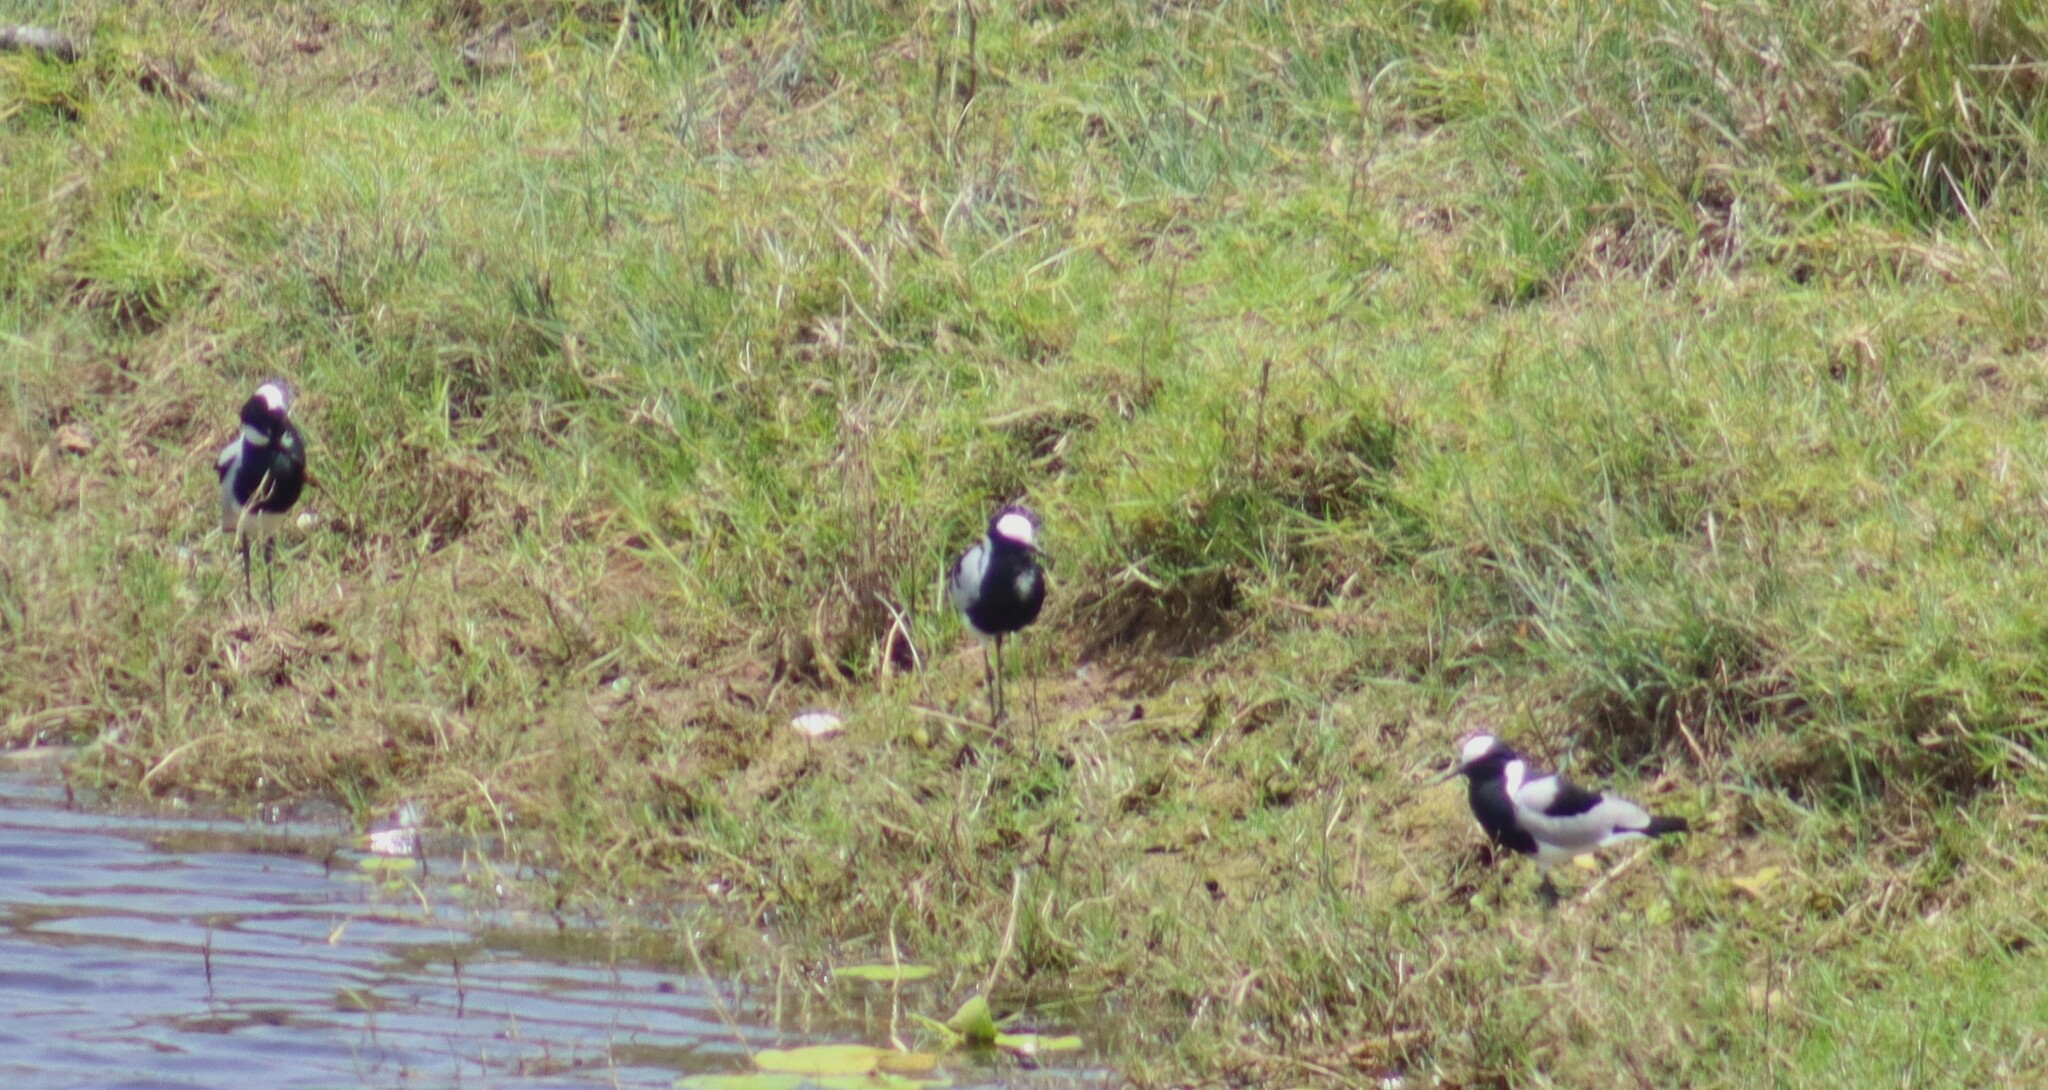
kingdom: Animalia
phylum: Chordata
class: Aves
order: Charadriiformes
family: Charadriidae
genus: Vanellus
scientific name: Vanellus armatus
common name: Blacksmith lapwing
